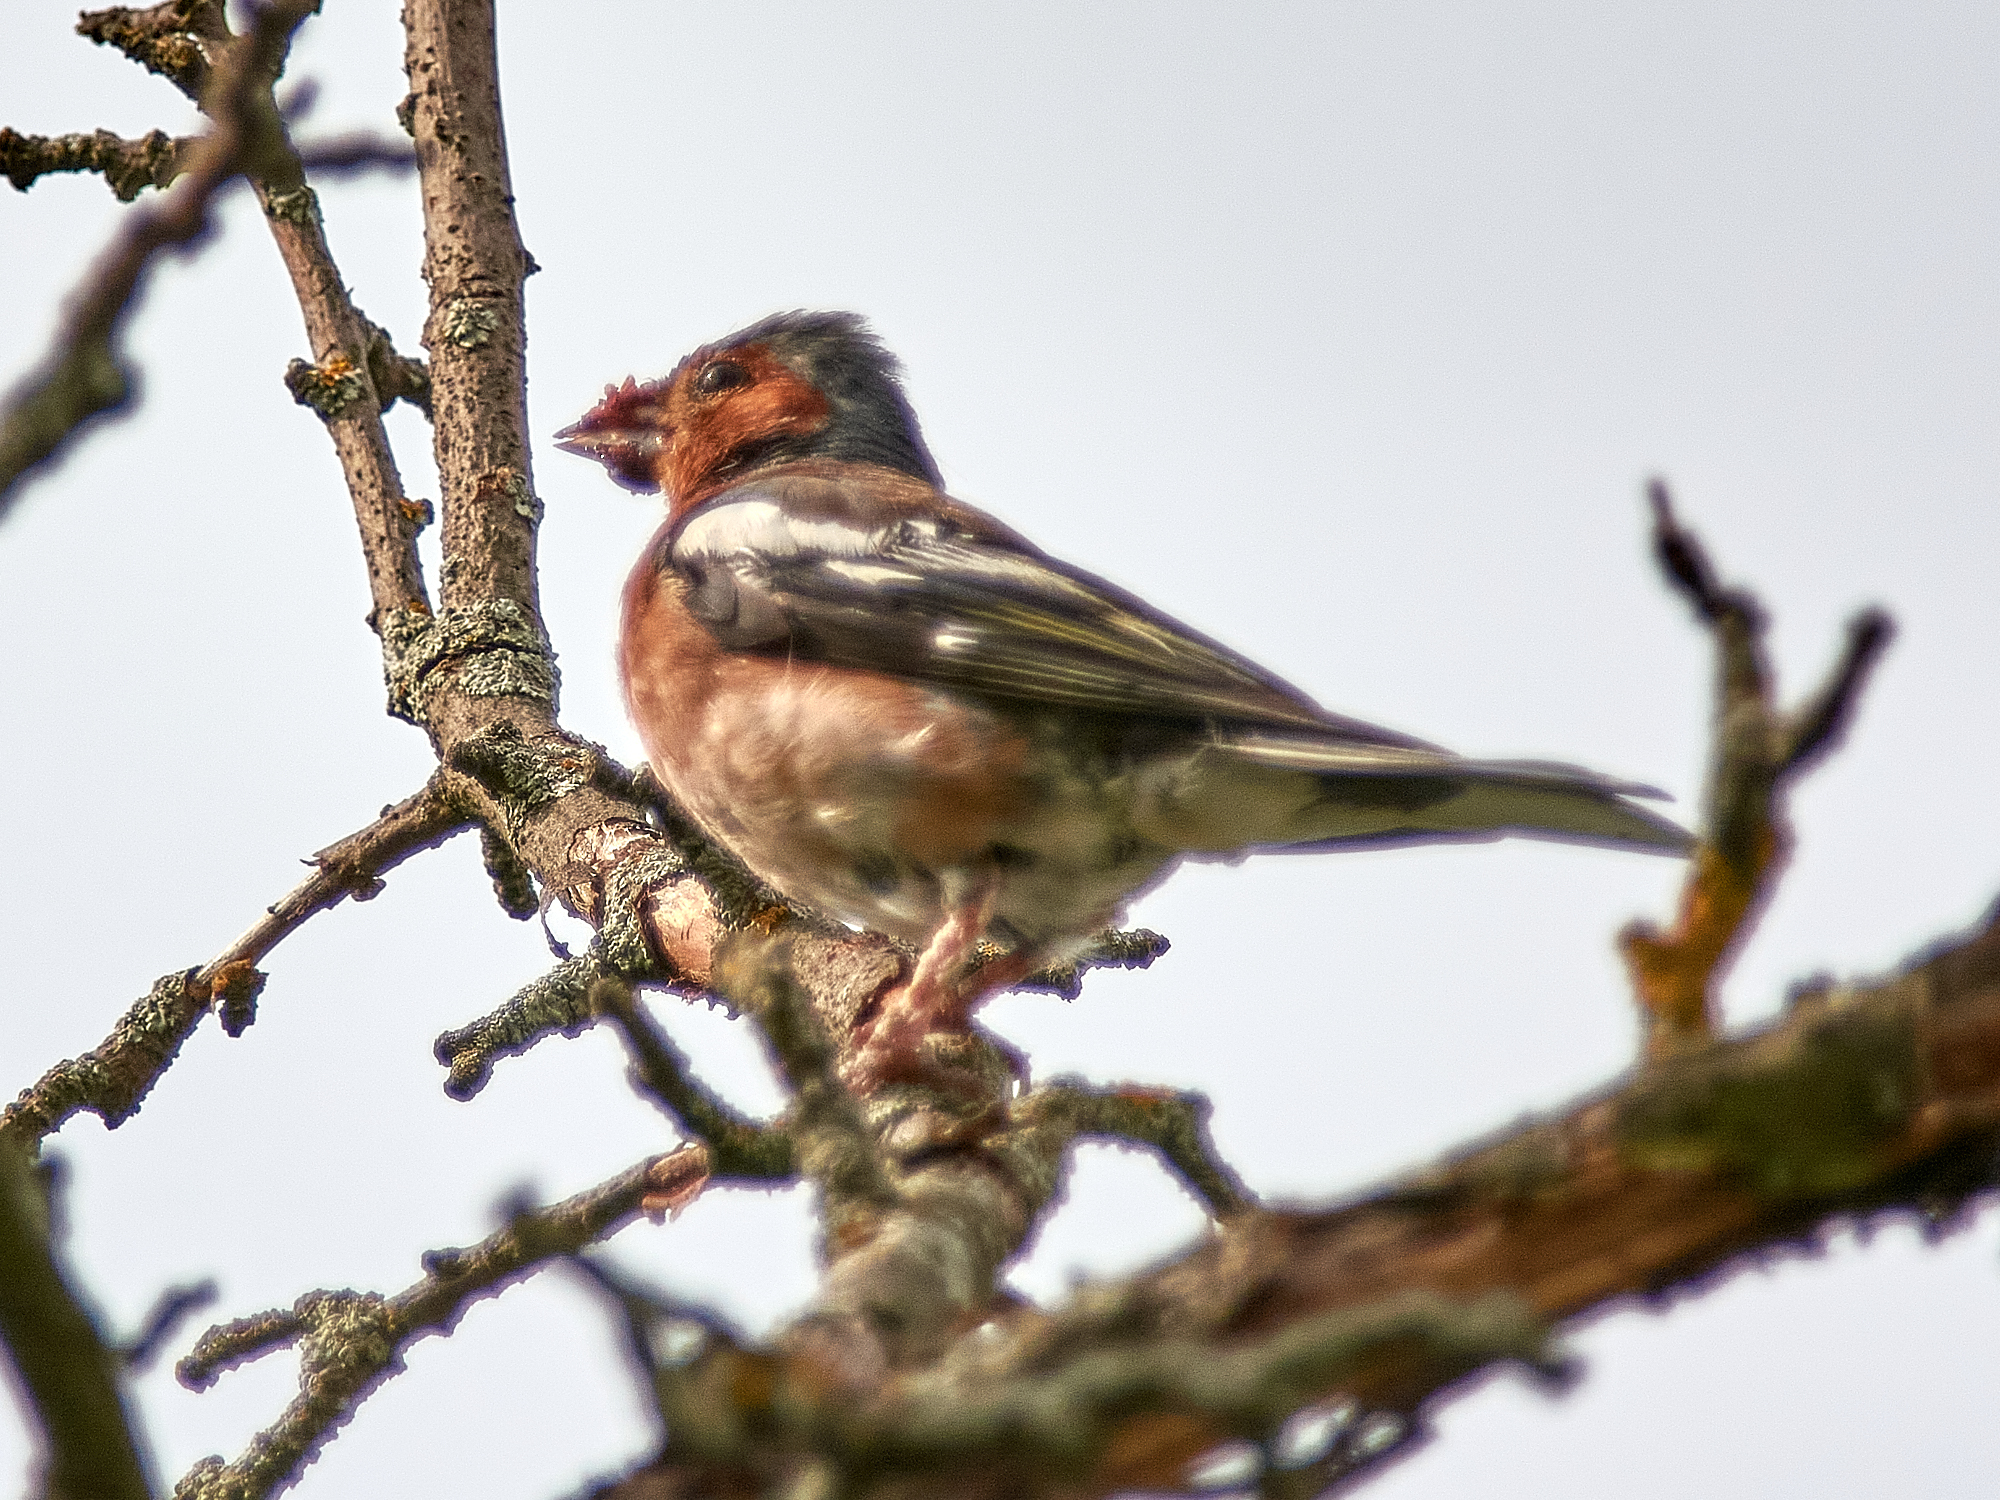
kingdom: Animalia
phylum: Chordata
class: Aves
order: Passeriformes
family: Fringillidae
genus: Fringilla
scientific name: Fringilla coelebs
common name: Common chaffinch
